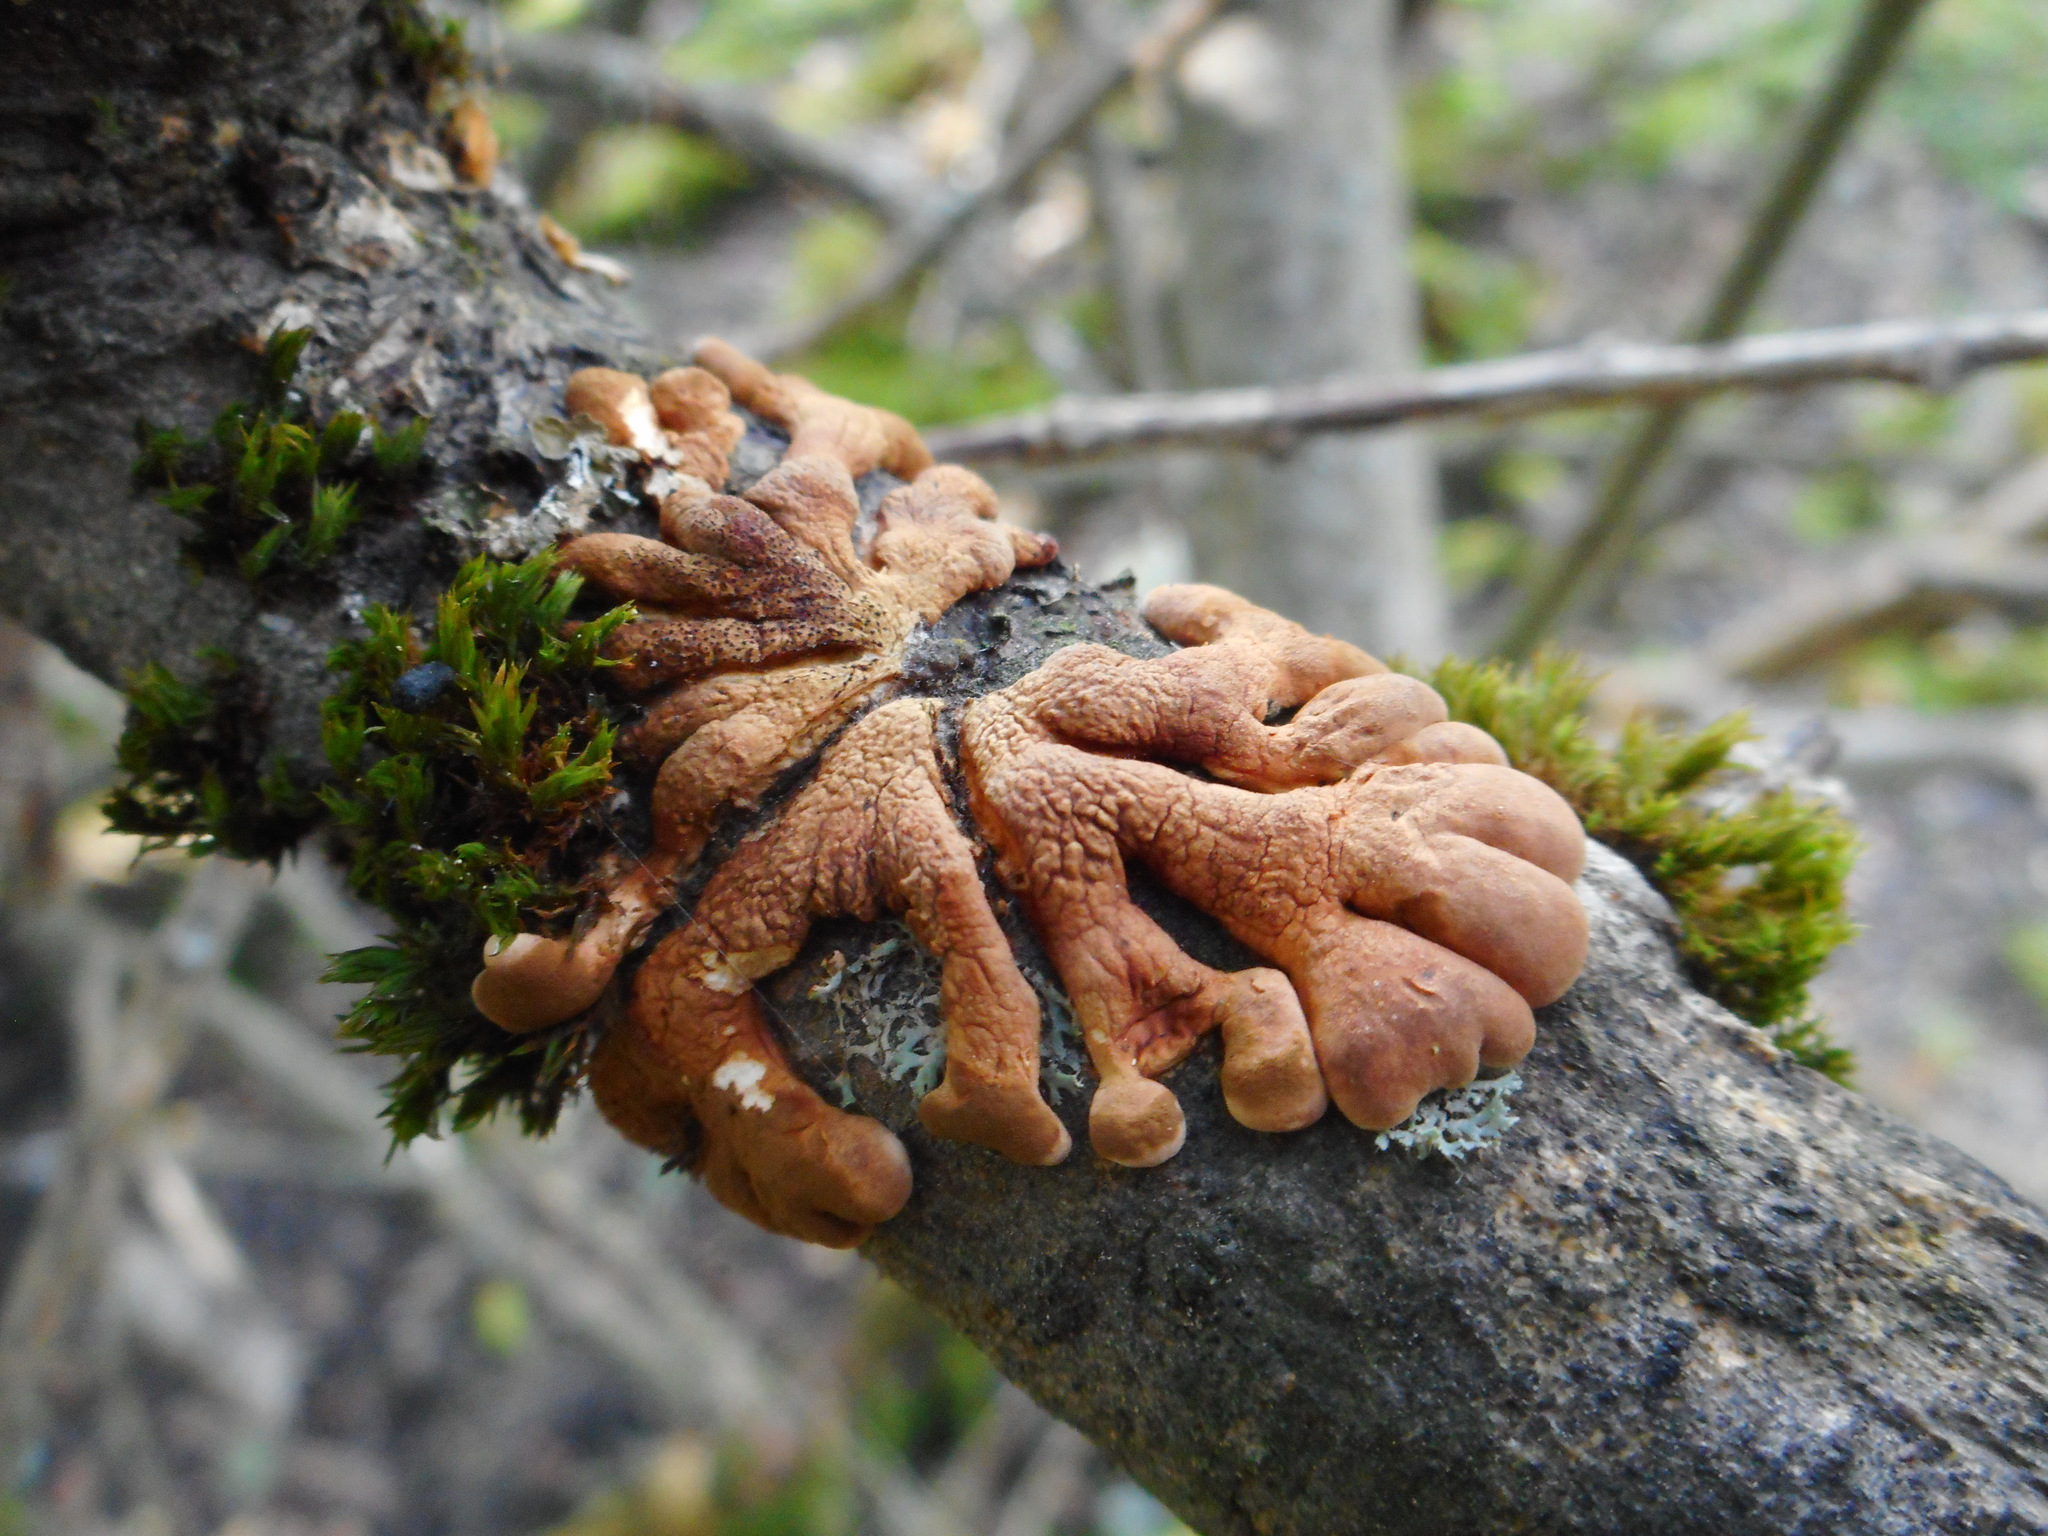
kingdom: Fungi
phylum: Ascomycota
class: Sordariomycetes
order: Hypocreales
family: Hypocreaceae
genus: Hypocreopsis
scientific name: Hypocreopsis lichenoides
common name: Willow gloves
